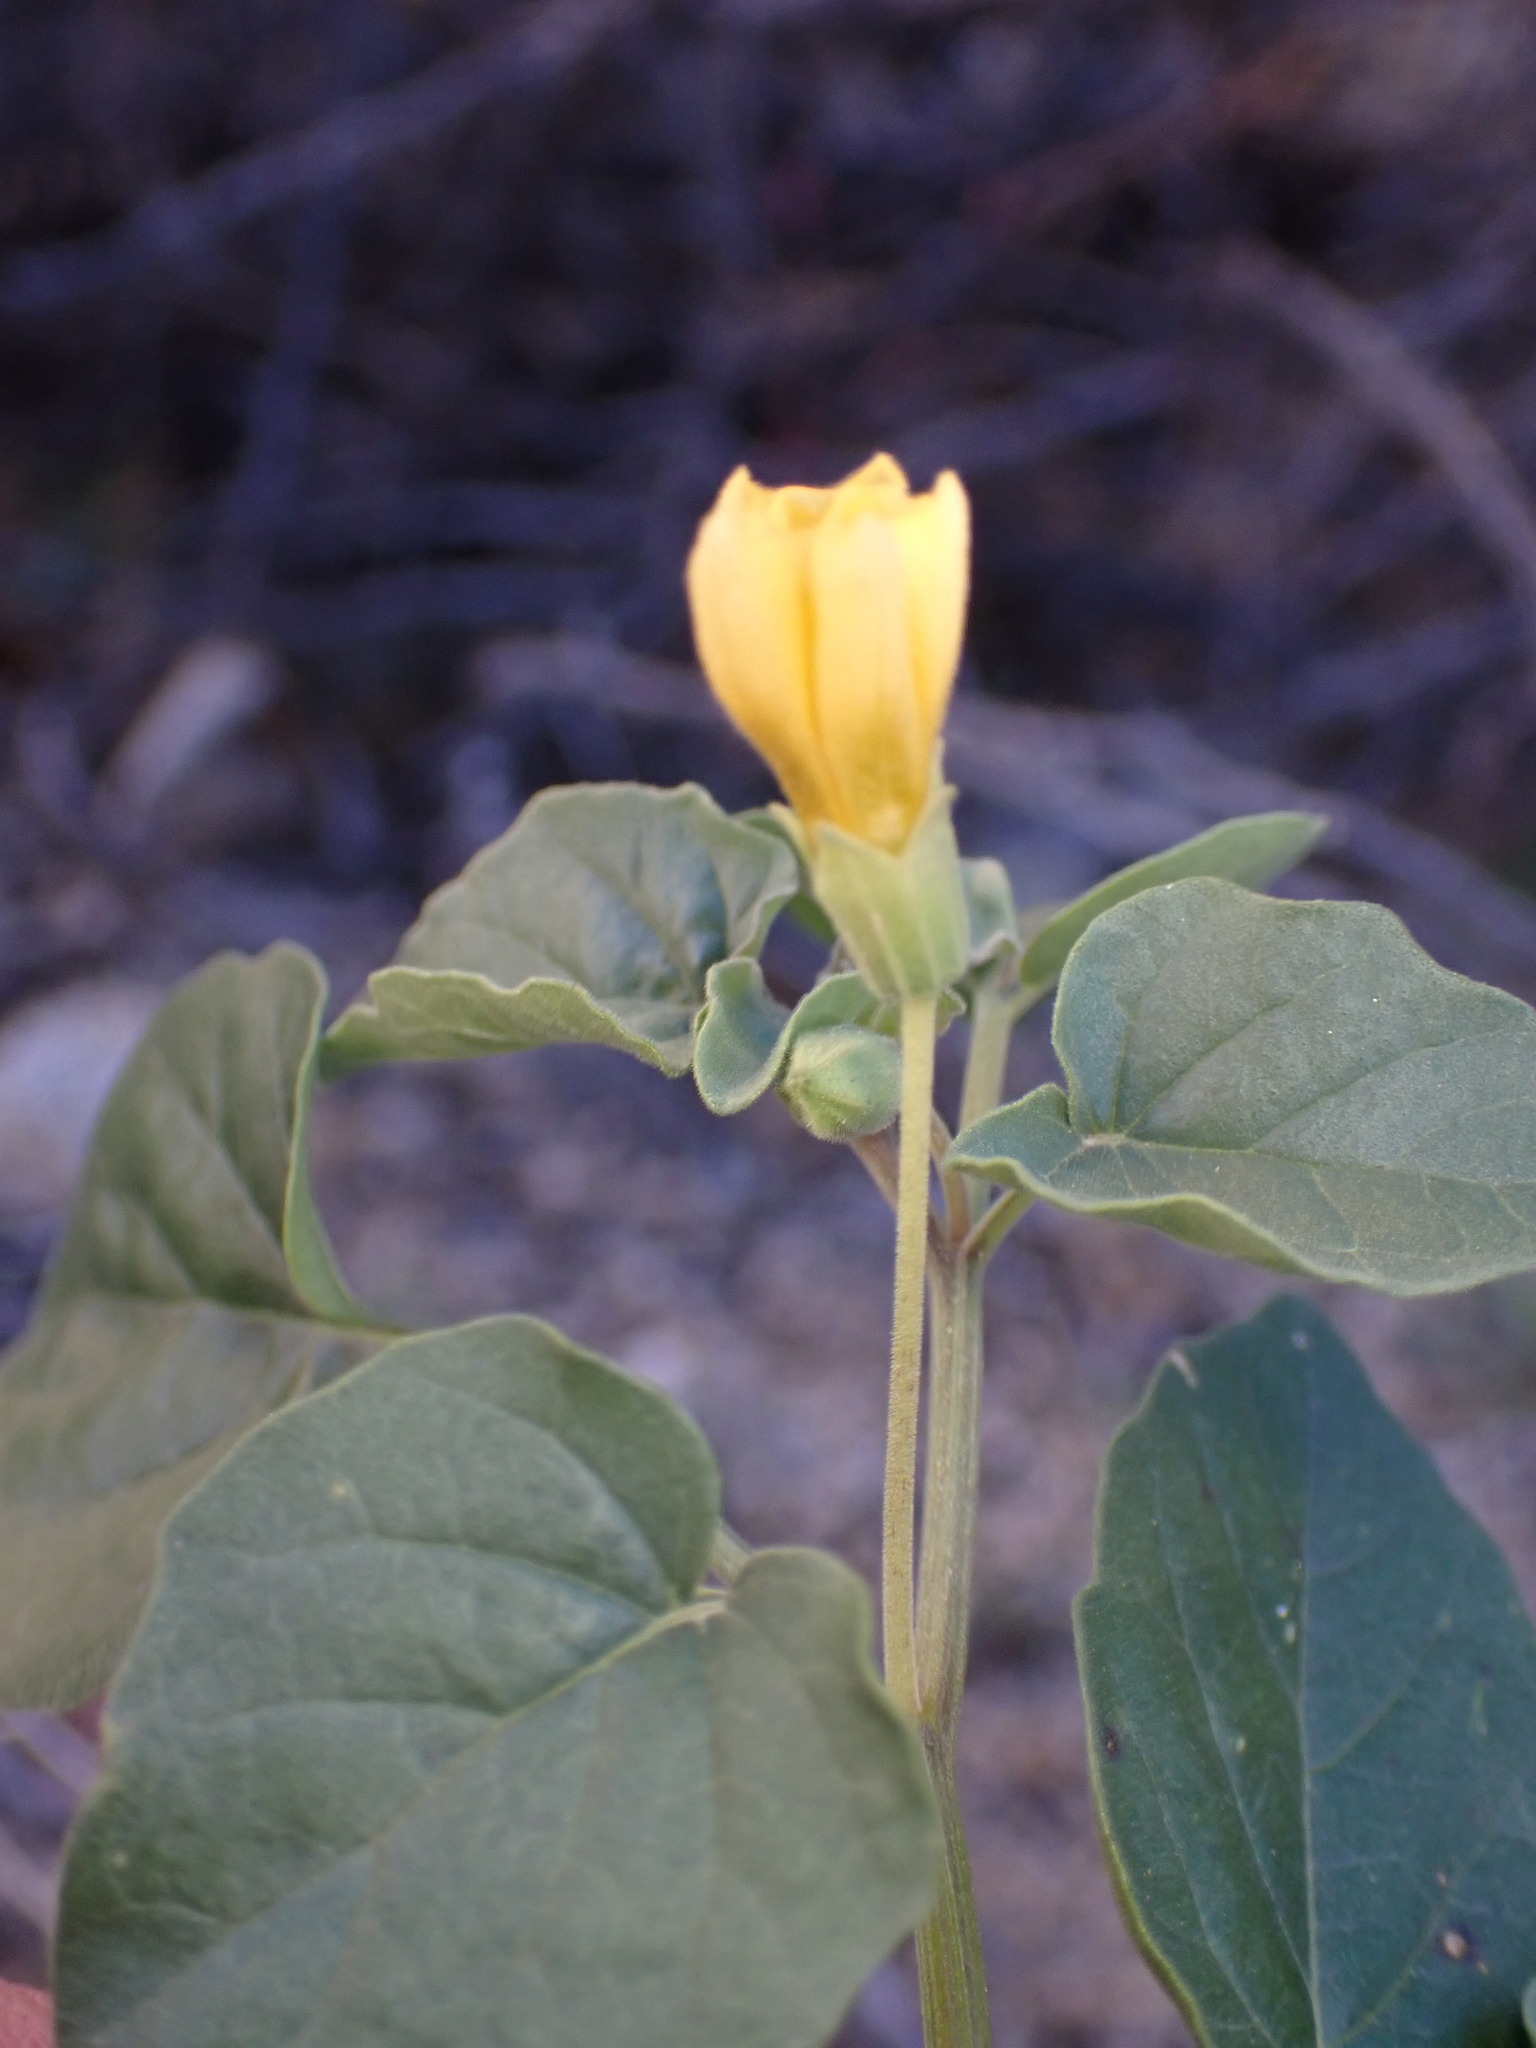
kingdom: Plantae
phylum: Tracheophyta
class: Magnoliopsida
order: Solanales
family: Solanaceae
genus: Physalis
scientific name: Physalis crassifolia
